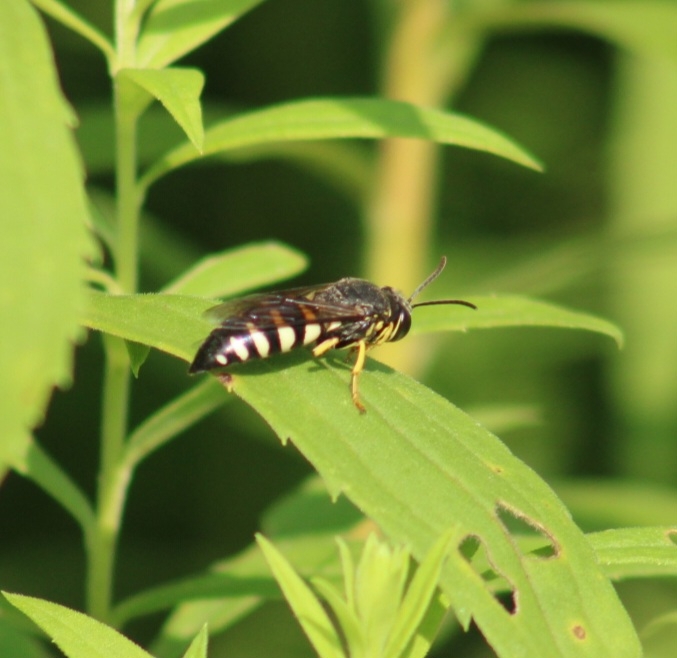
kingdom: Animalia
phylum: Arthropoda
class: Insecta
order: Hymenoptera
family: Crabronidae
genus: Bicyrtes
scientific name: Bicyrtes quadrifasciatus
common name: Four-banded stink bug hunter wasp
